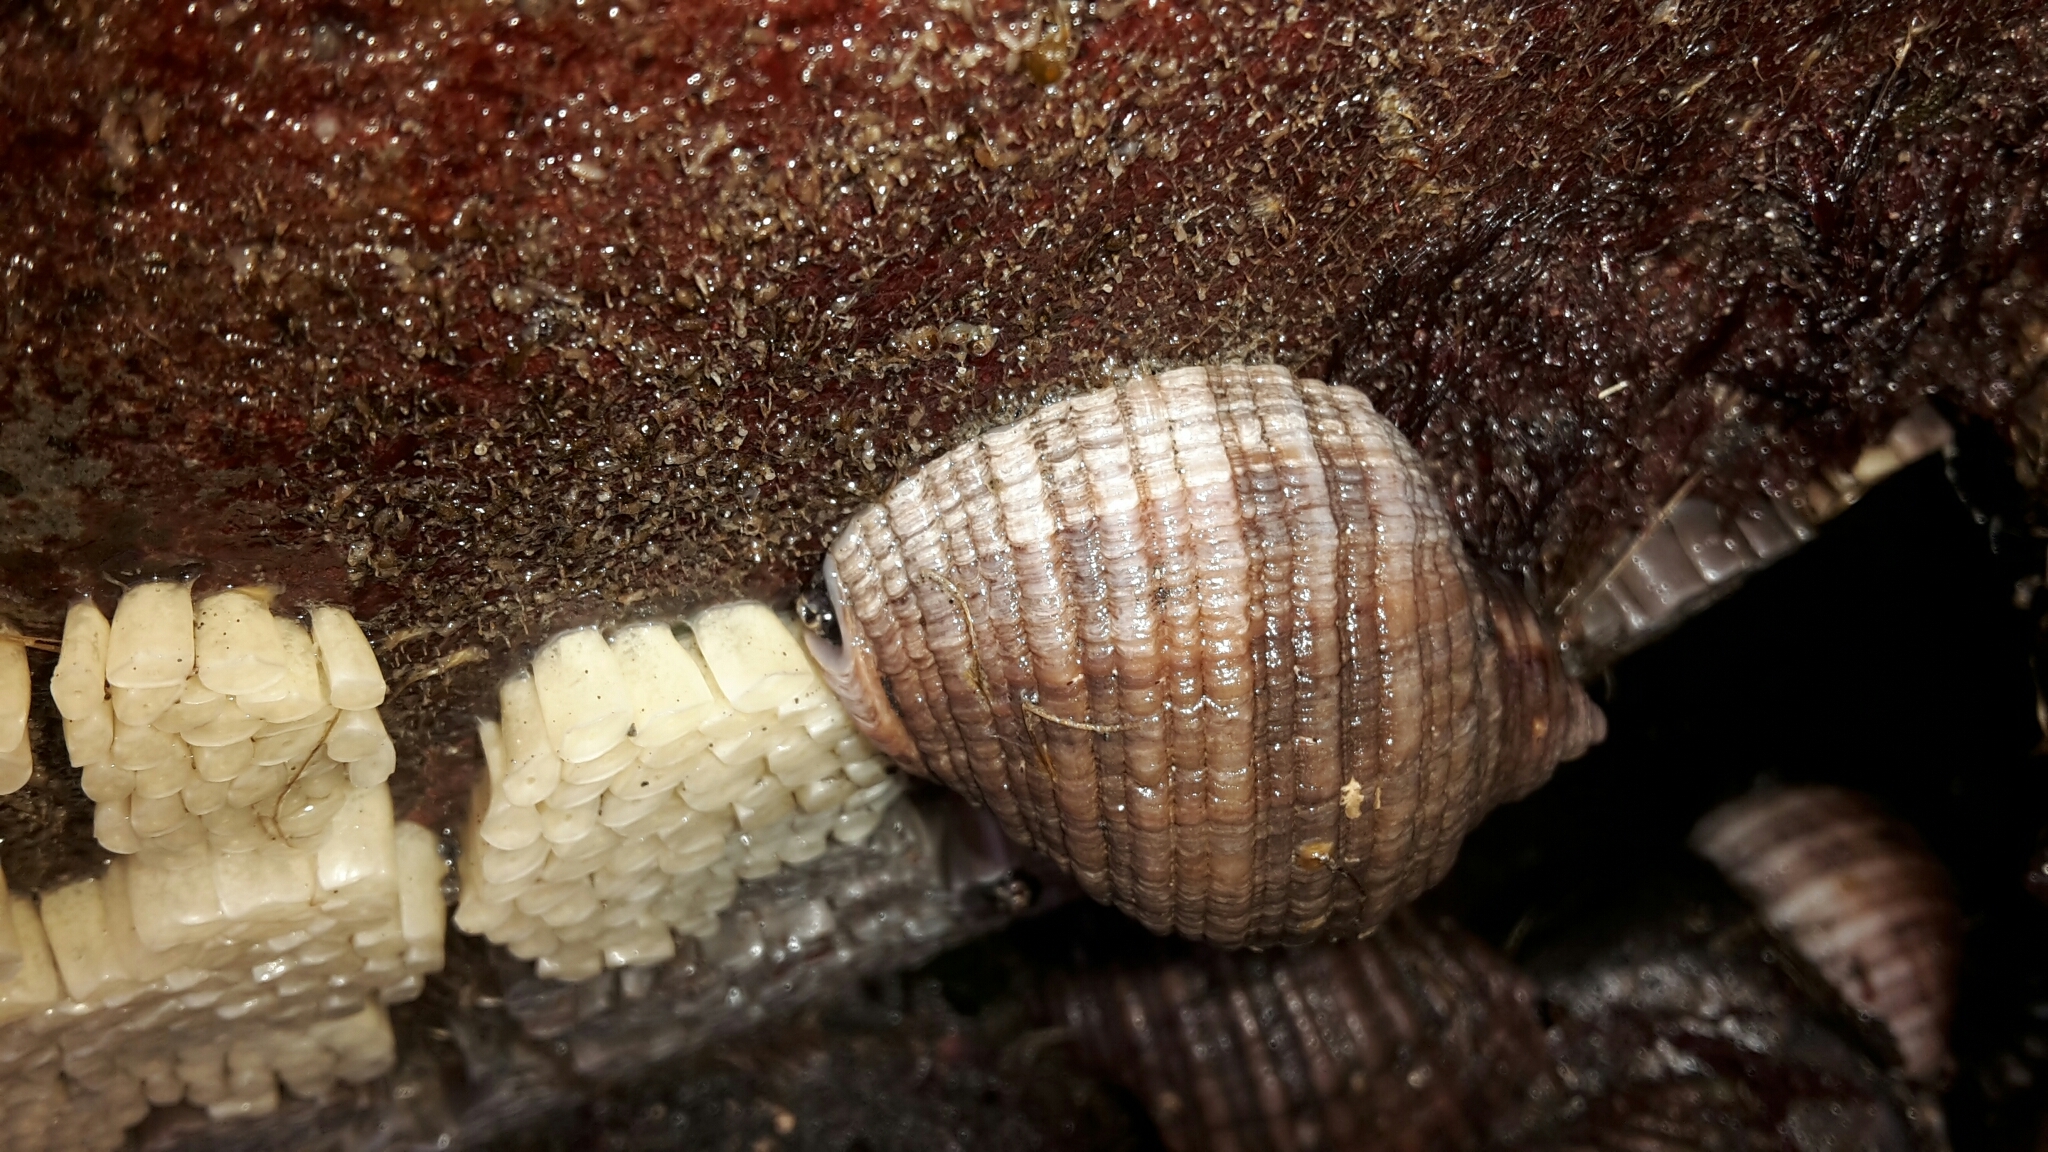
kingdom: Animalia
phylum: Mollusca
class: Gastropoda
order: Neogastropoda
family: Muricidae
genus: Dicathais
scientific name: Dicathais orbita
